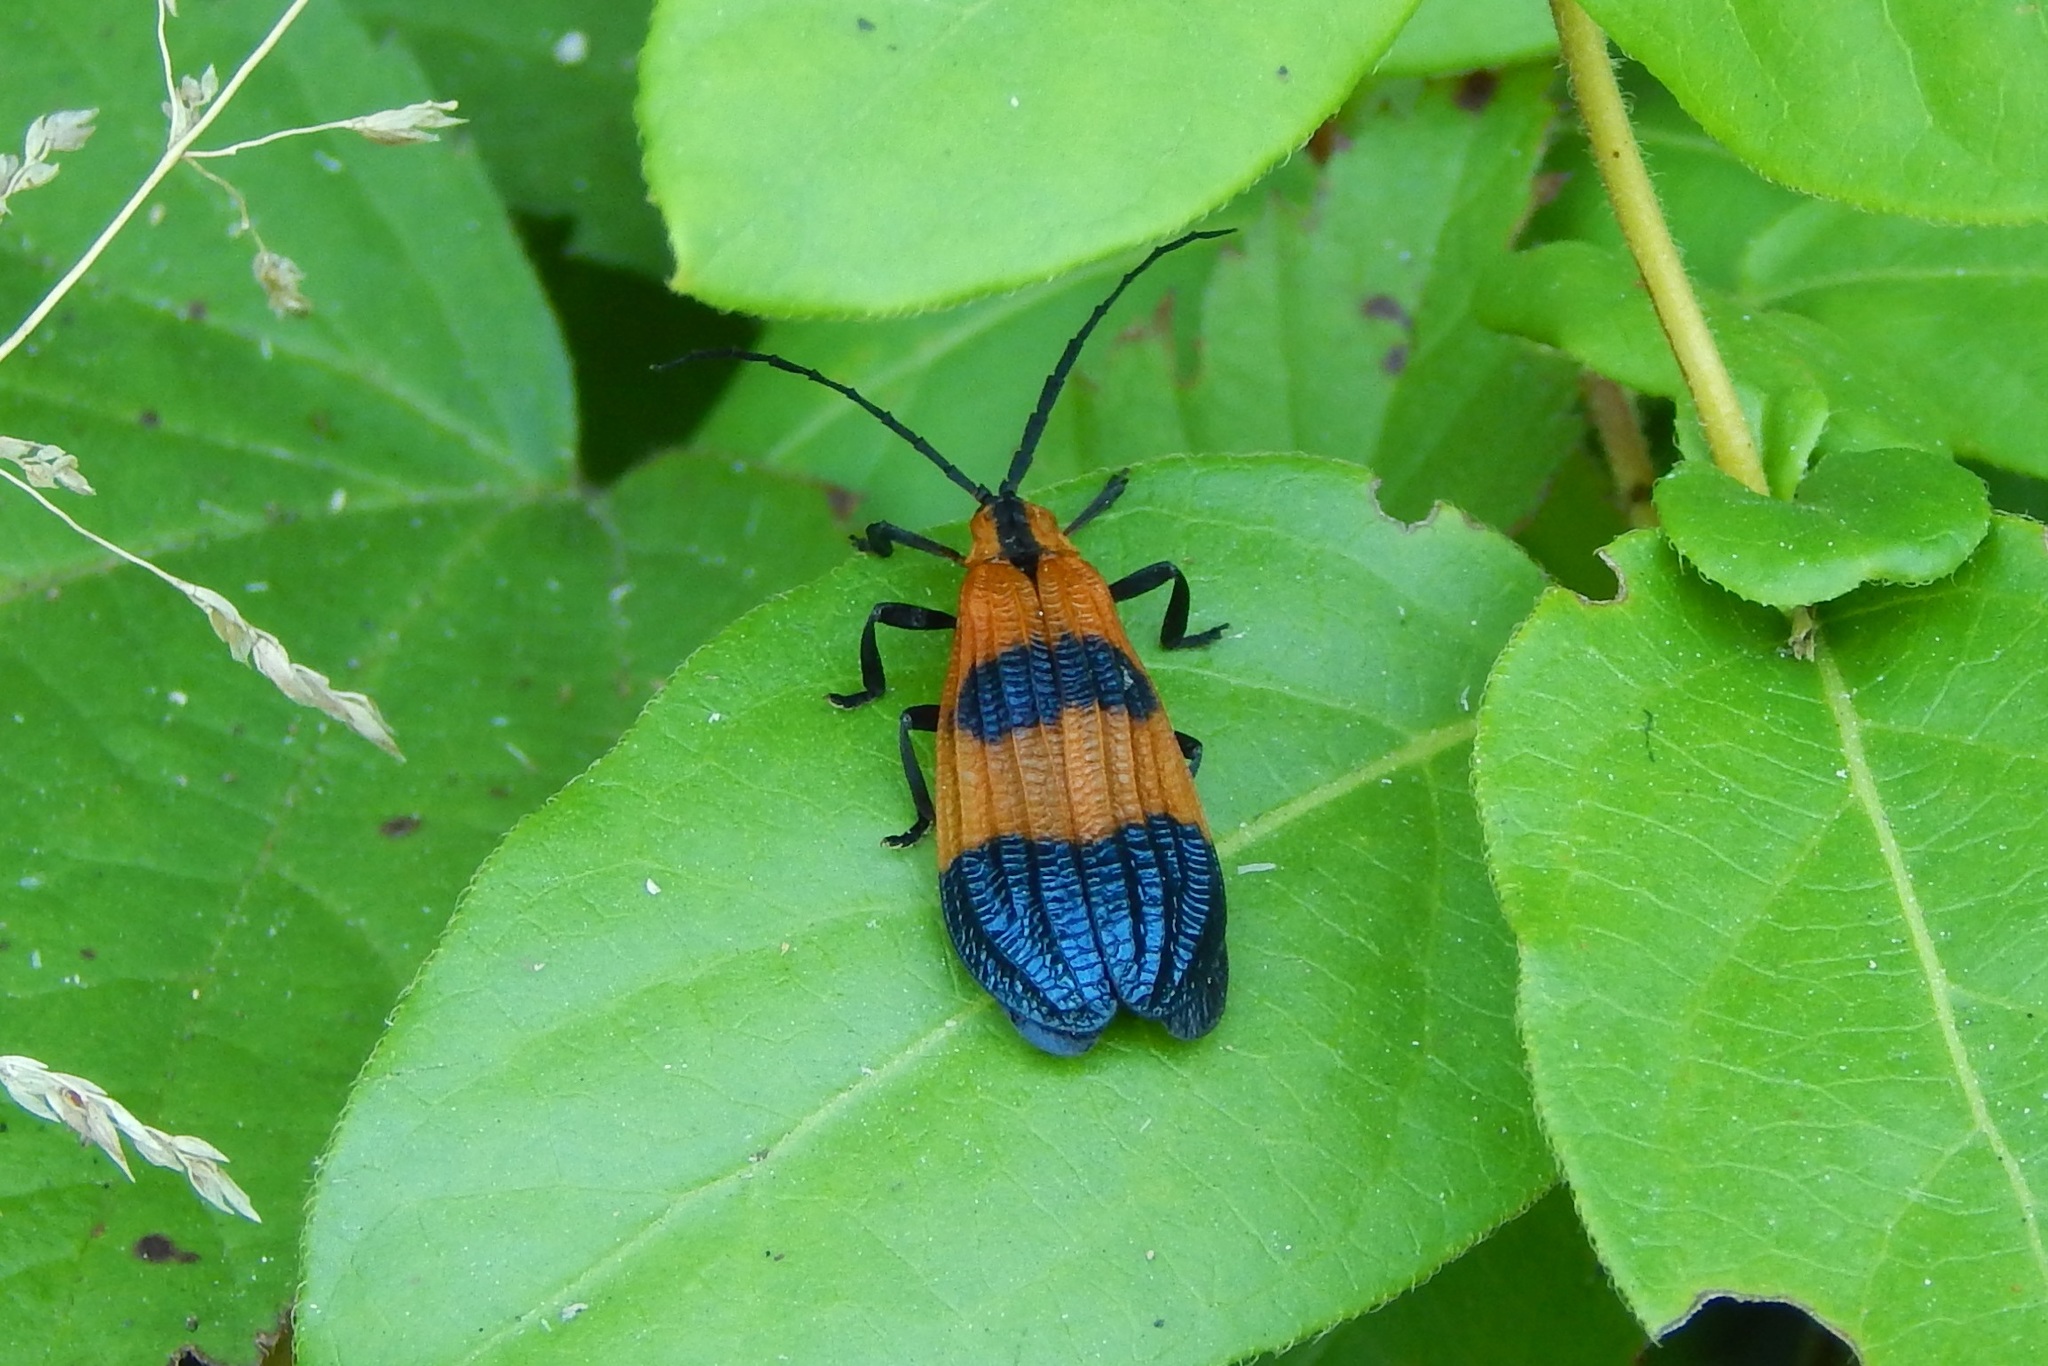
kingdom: Animalia
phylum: Arthropoda
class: Insecta
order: Coleoptera
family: Lycidae
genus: Calopteron
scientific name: Calopteron terminale
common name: End band net-winged beetle
